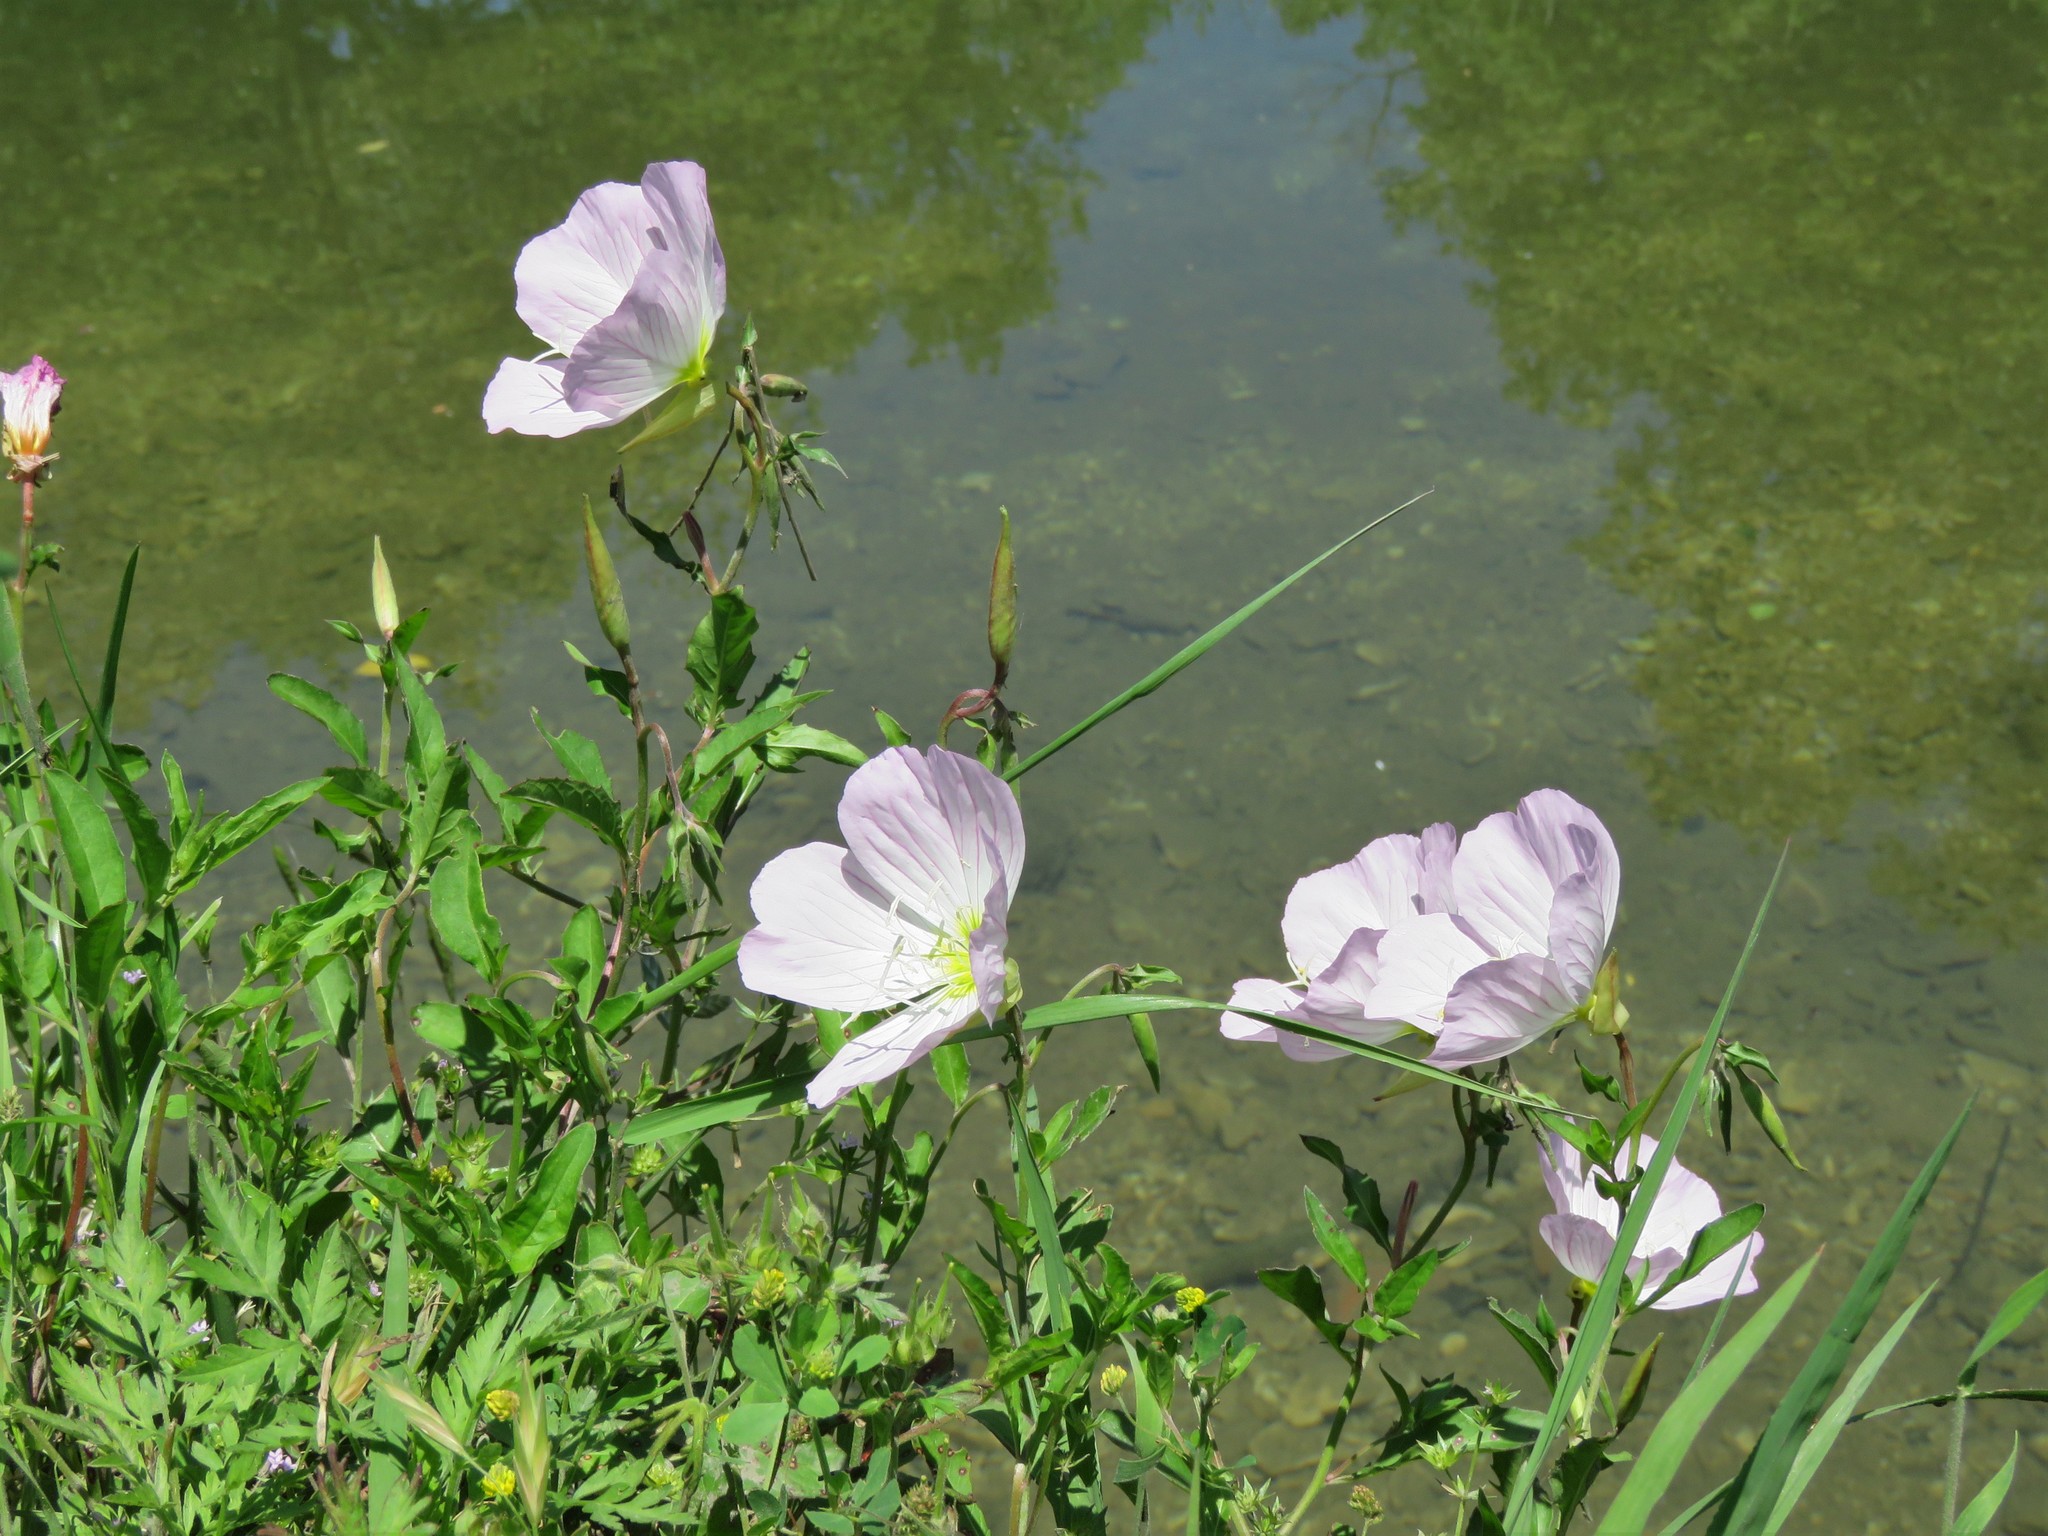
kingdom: Plantae
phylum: Tracheophyta
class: Magnoliopsida
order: Myrtales
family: Onagraceae
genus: Oenothera
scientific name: Oenothera speciosa
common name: White evening-primrose
